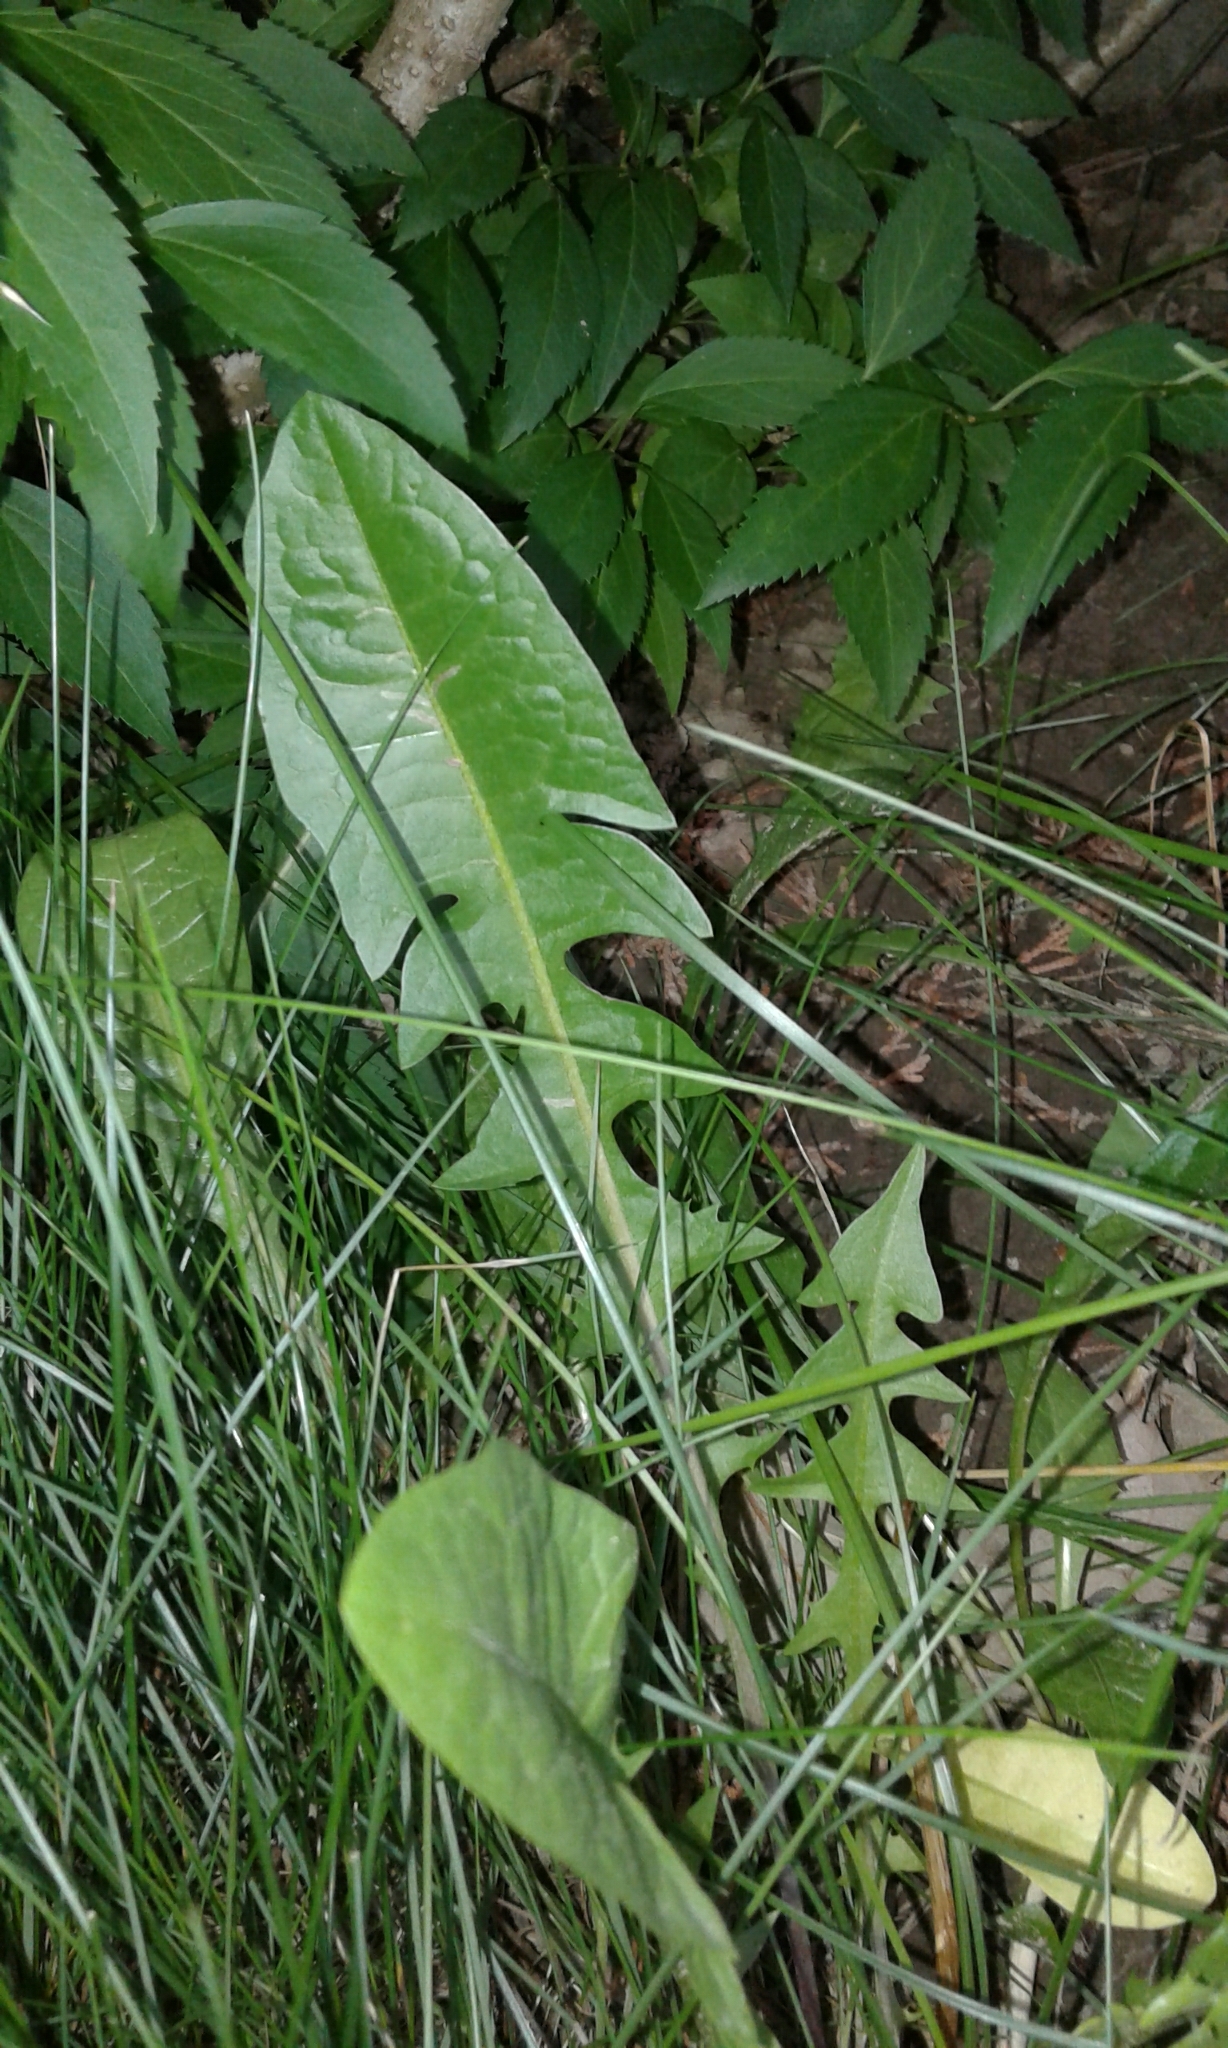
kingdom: Plantae
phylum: Tracheophyta
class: Magnoliopsida
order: Asterales
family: Asteraceae
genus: Taraxacum
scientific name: Taraxacum officinale
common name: Common dandelion
